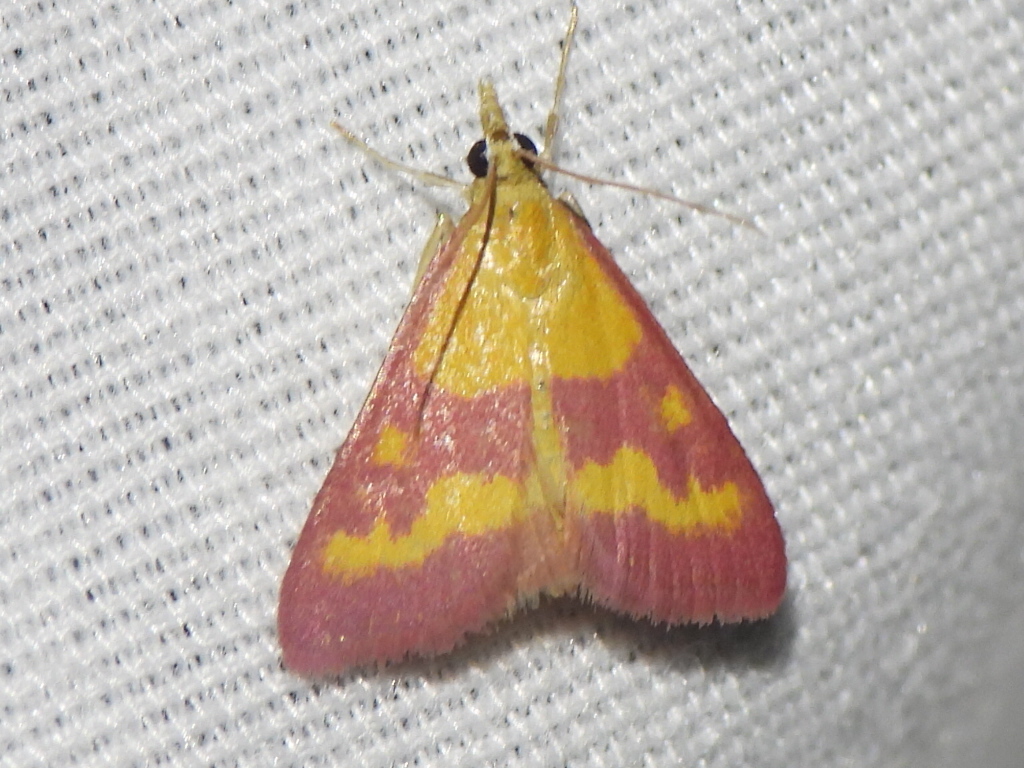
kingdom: Animalia
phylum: Arthropoda
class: Insecta
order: Lepidoptera
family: Crambidae
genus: Pyrausta
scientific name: Pyrausta laticlavia
